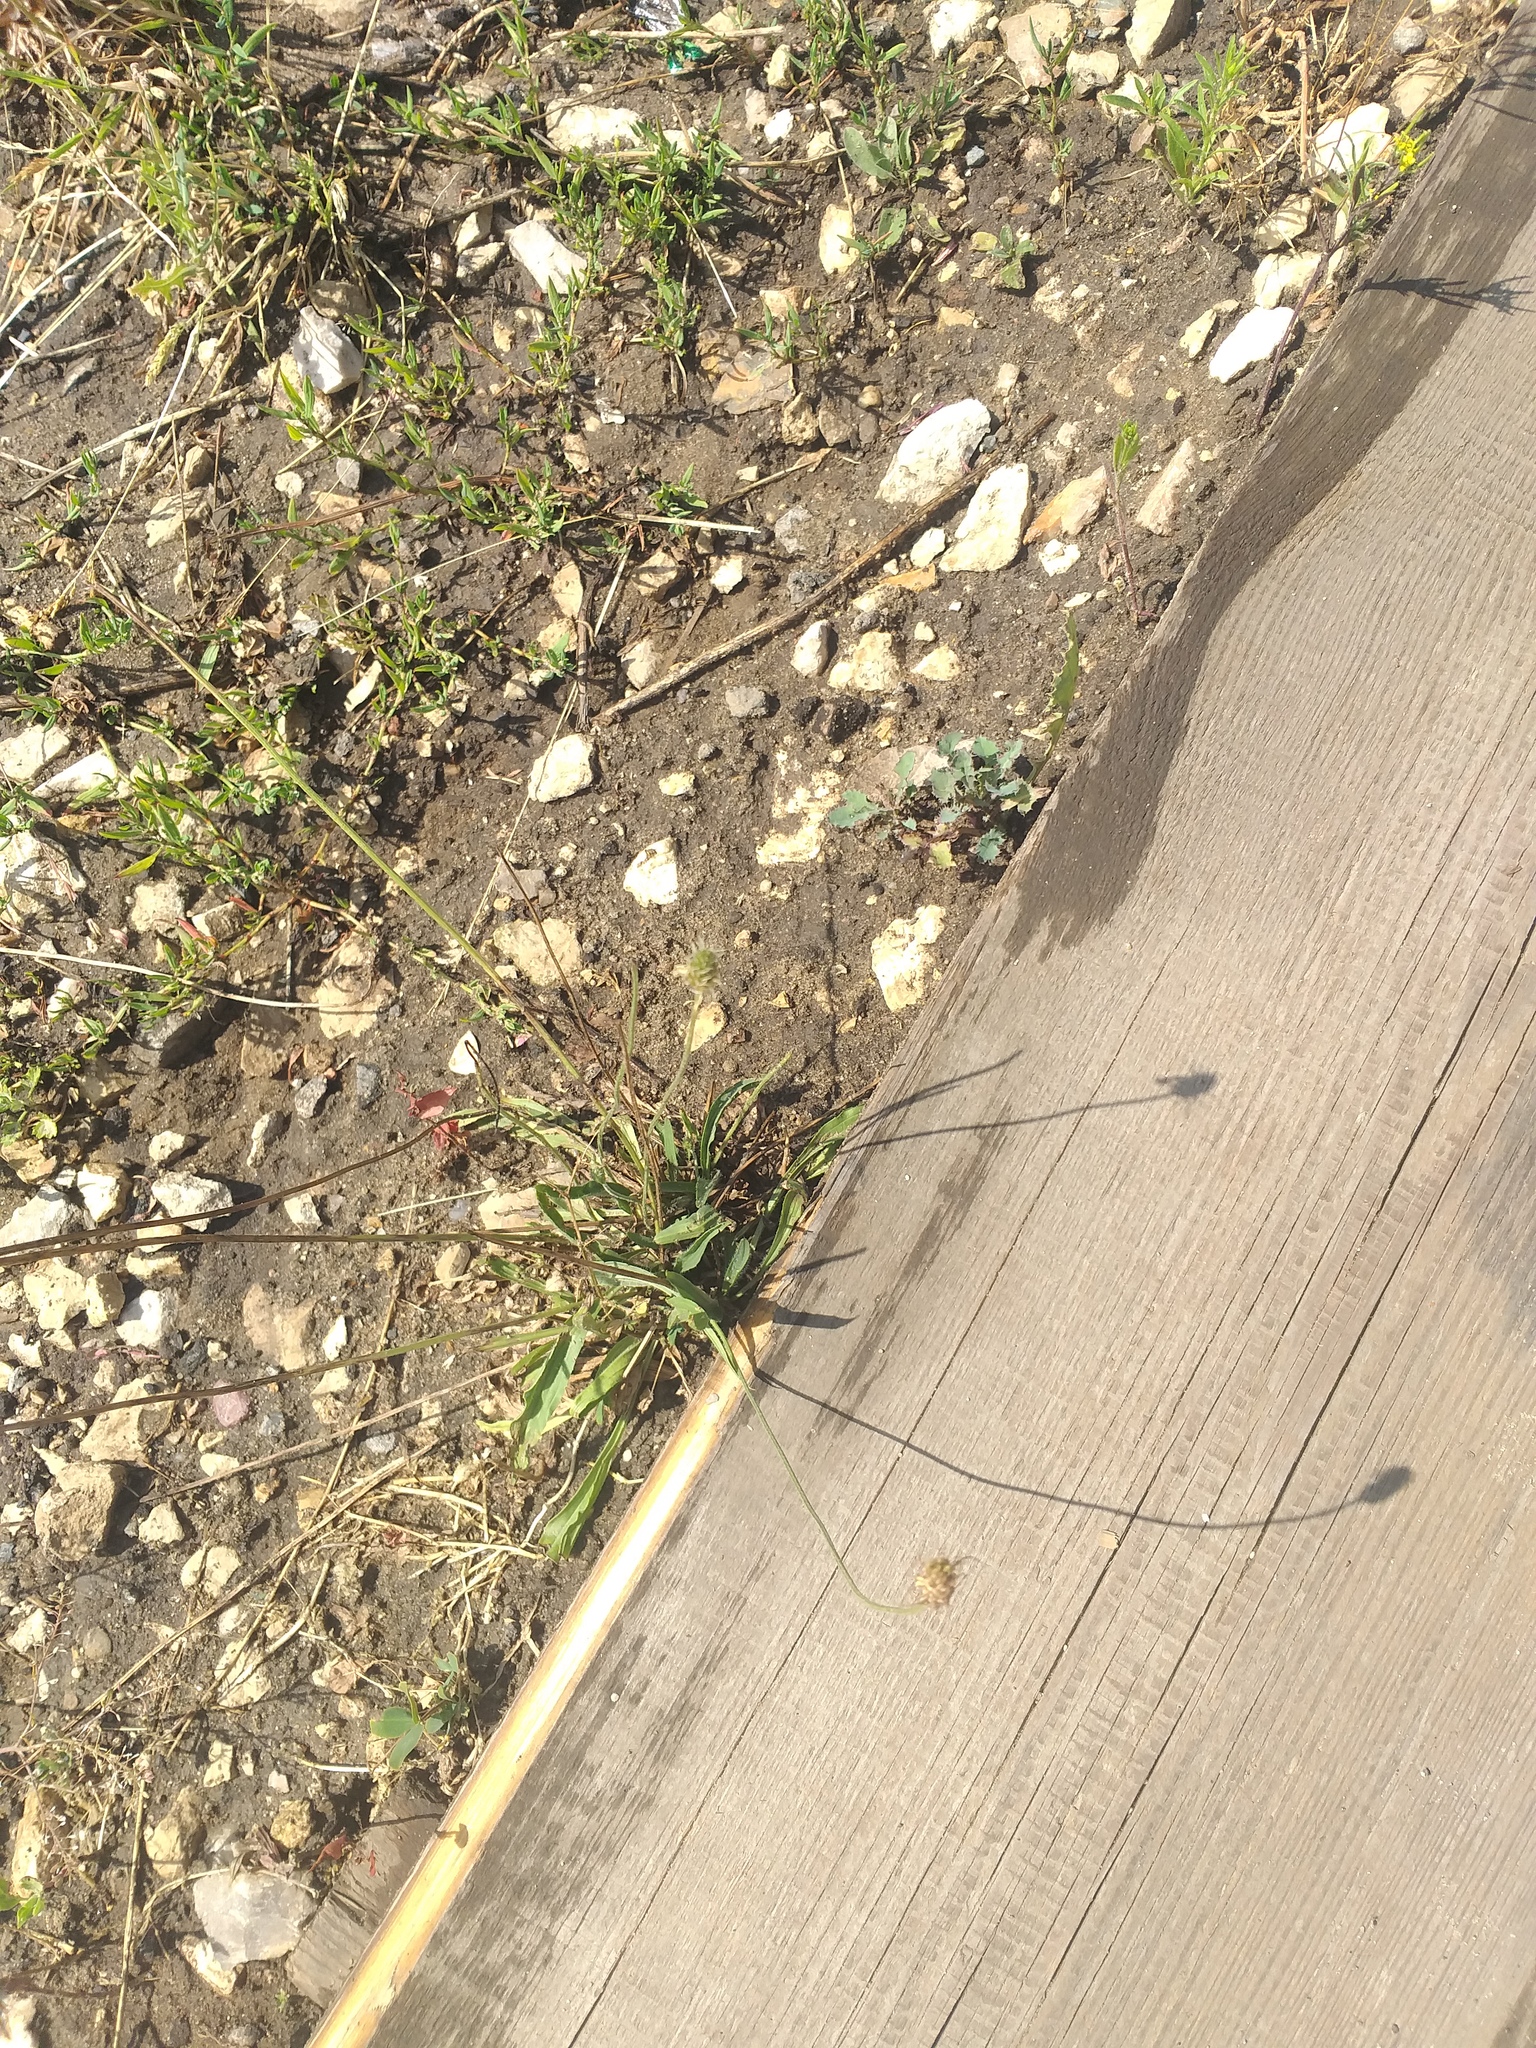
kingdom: Plantae
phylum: Tracheophyta
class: Magnoliopsida
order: Lamiales
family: Plantaginaceae
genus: Plantago
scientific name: Plantago lanceolata
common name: Ribwort plantain
